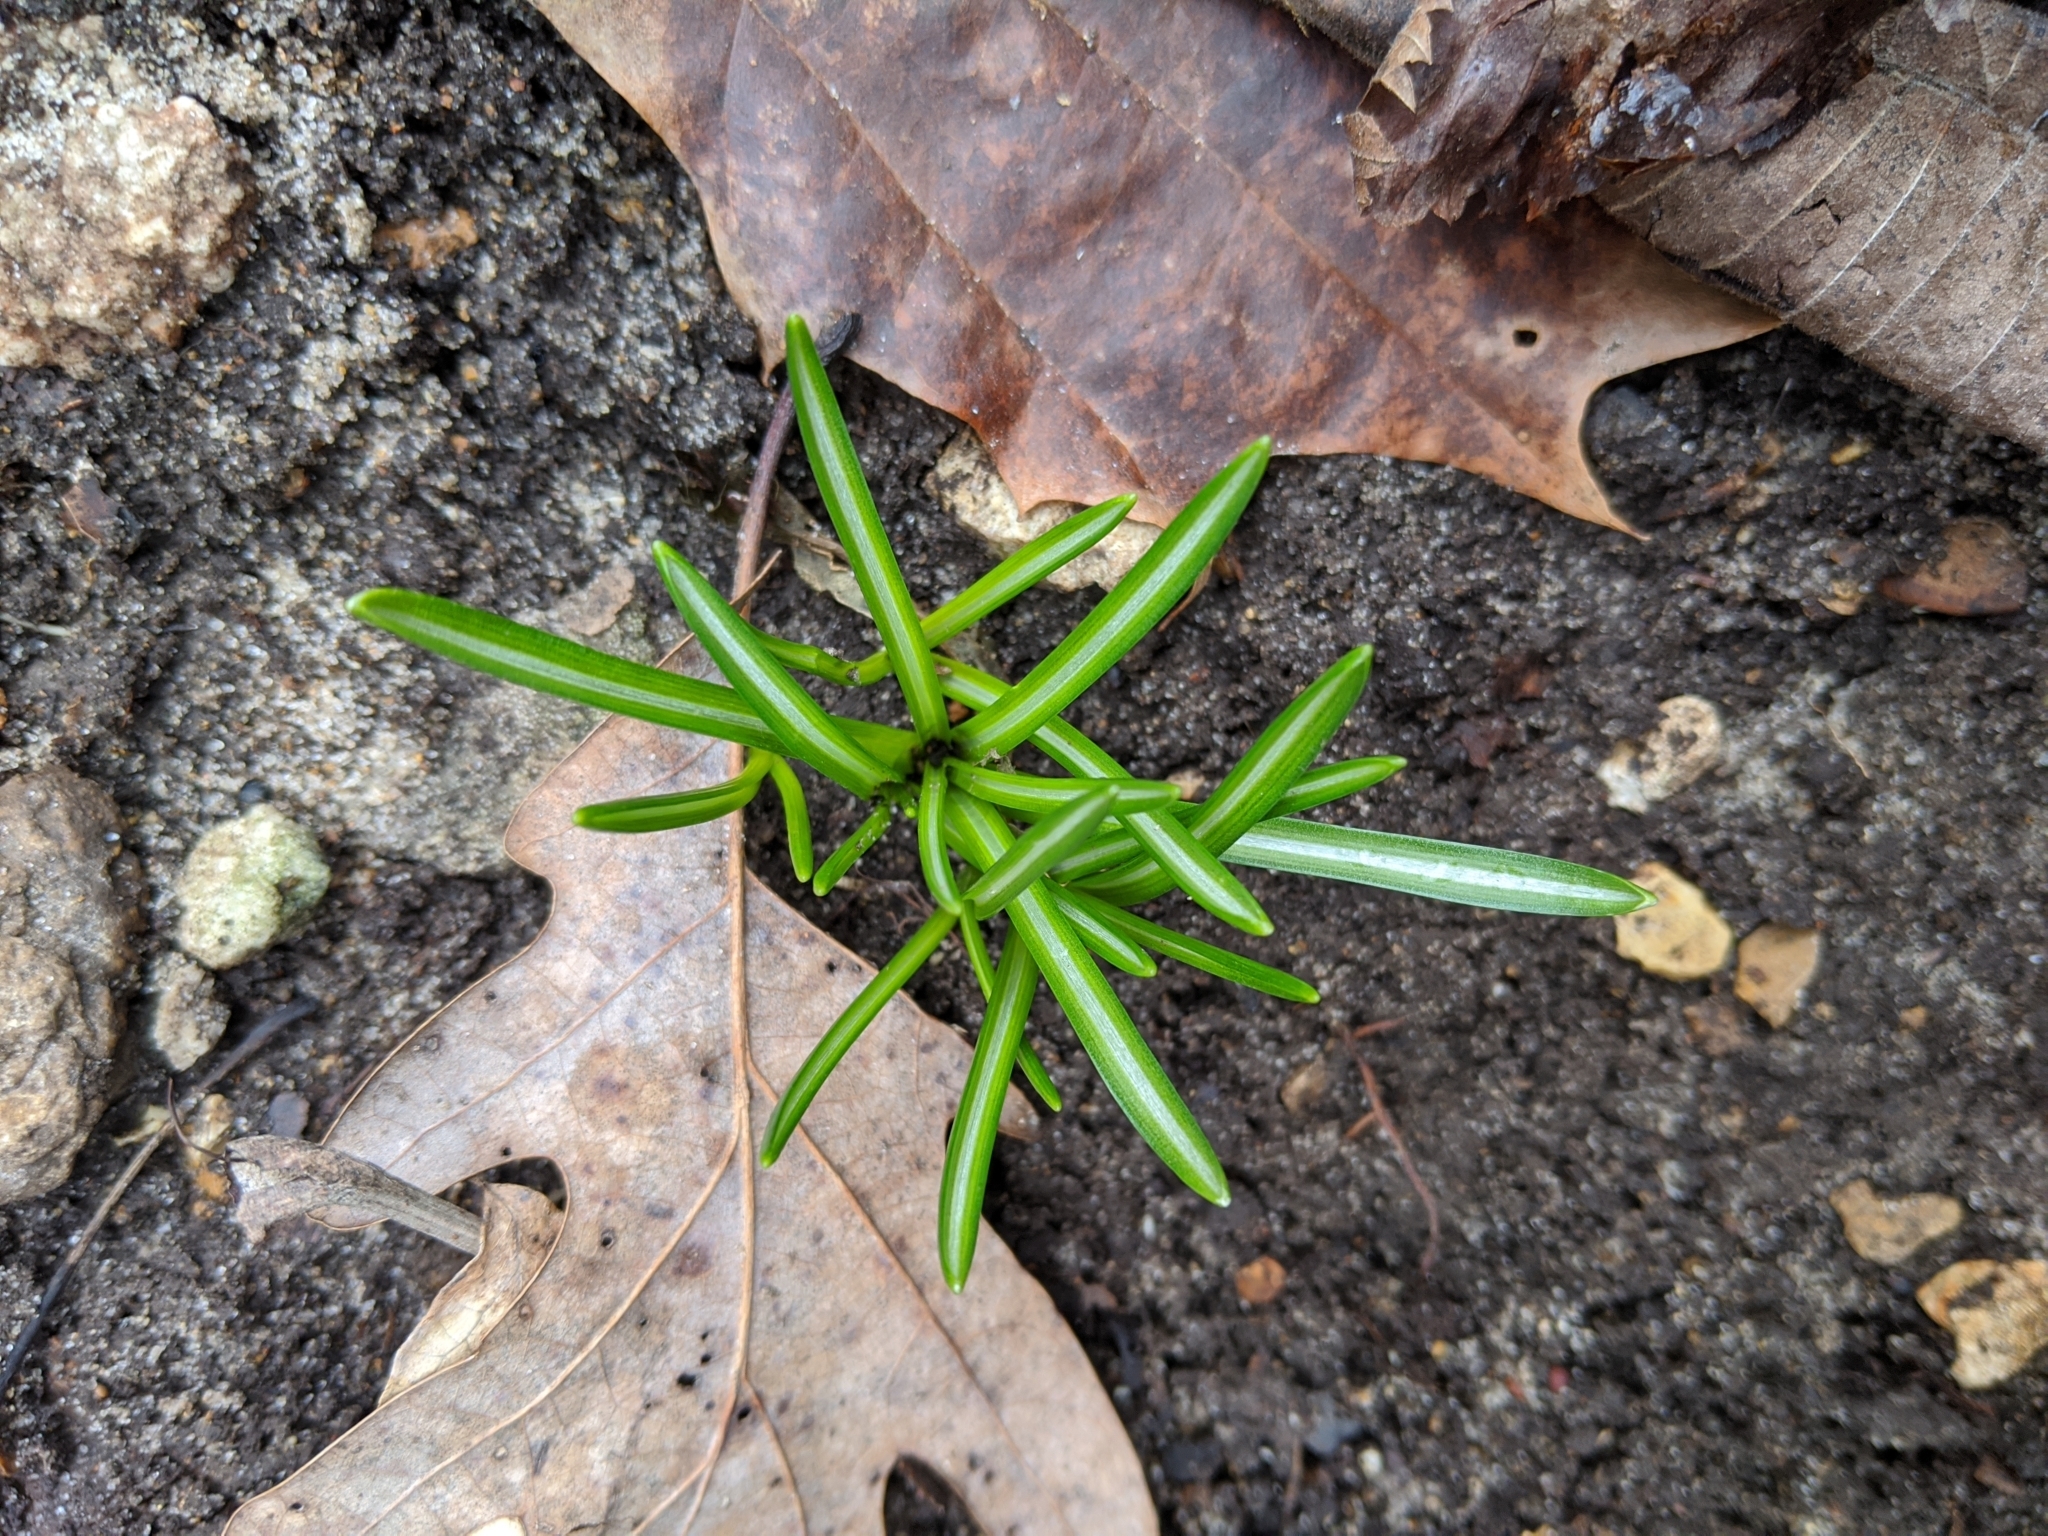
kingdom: Plantae
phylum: Tracheophyta
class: Liliopsida
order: Asparagales
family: Asparagaceae
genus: Ornithogalum
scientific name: Ornithogalum umbellatum
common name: Garden star-of-bethlehem
